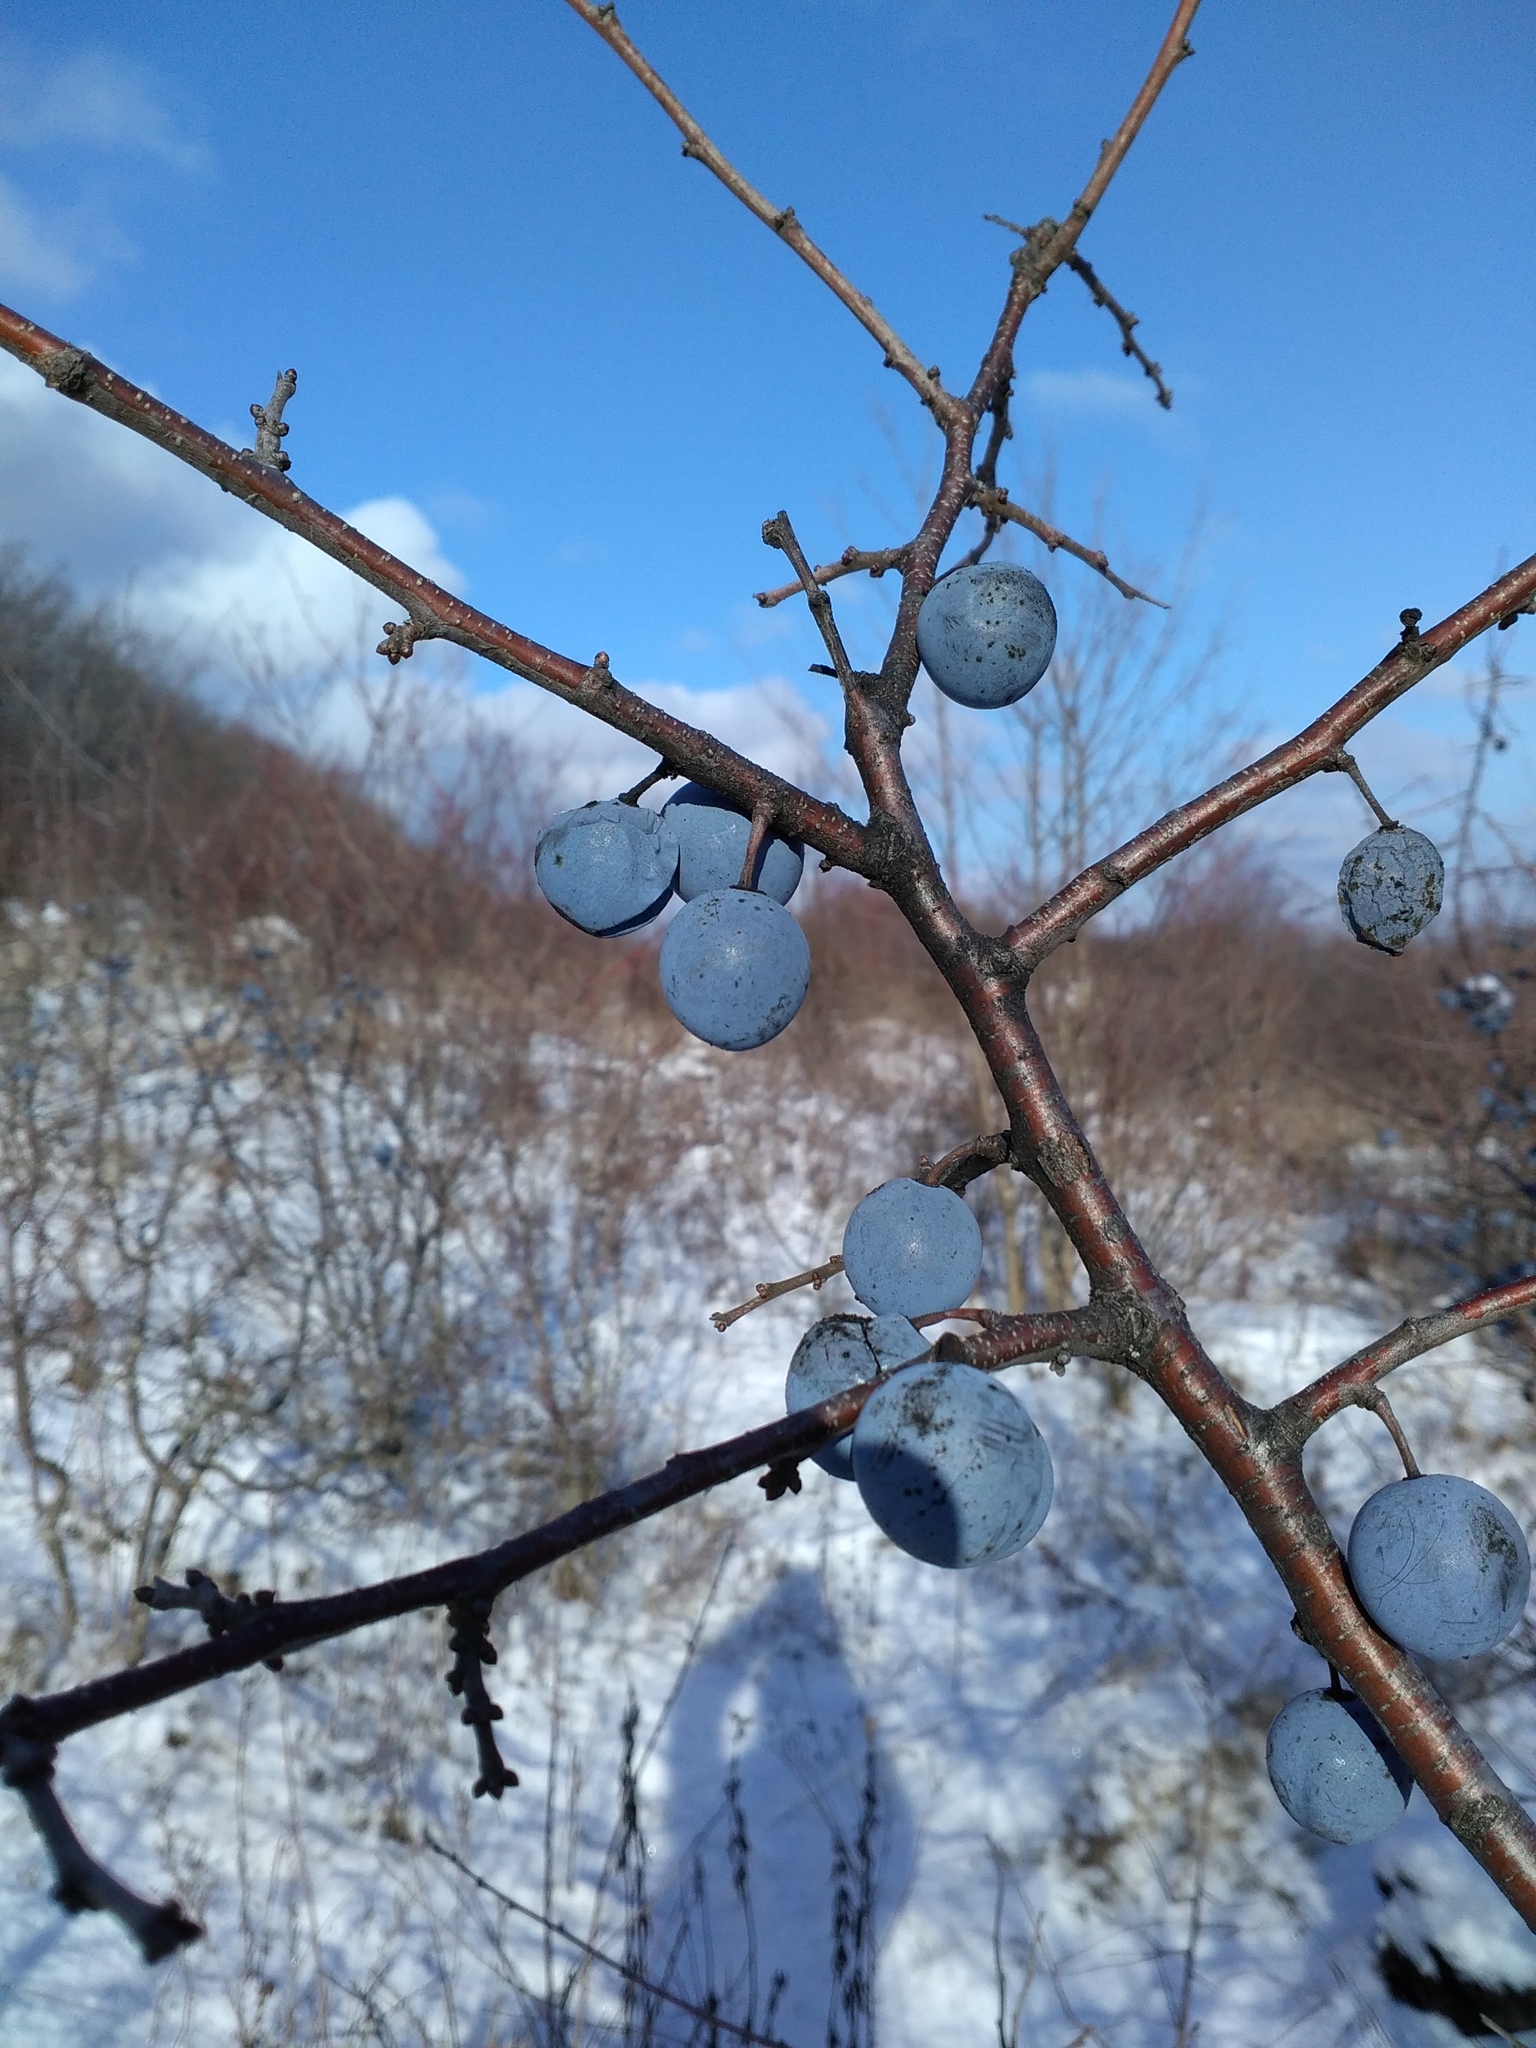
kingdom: Plantae
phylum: Tracheophyta
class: Magnoliopsida
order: Rosales
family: Rosaceae
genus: Prunus
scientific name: Prunus spinosa
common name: Blackthorn
